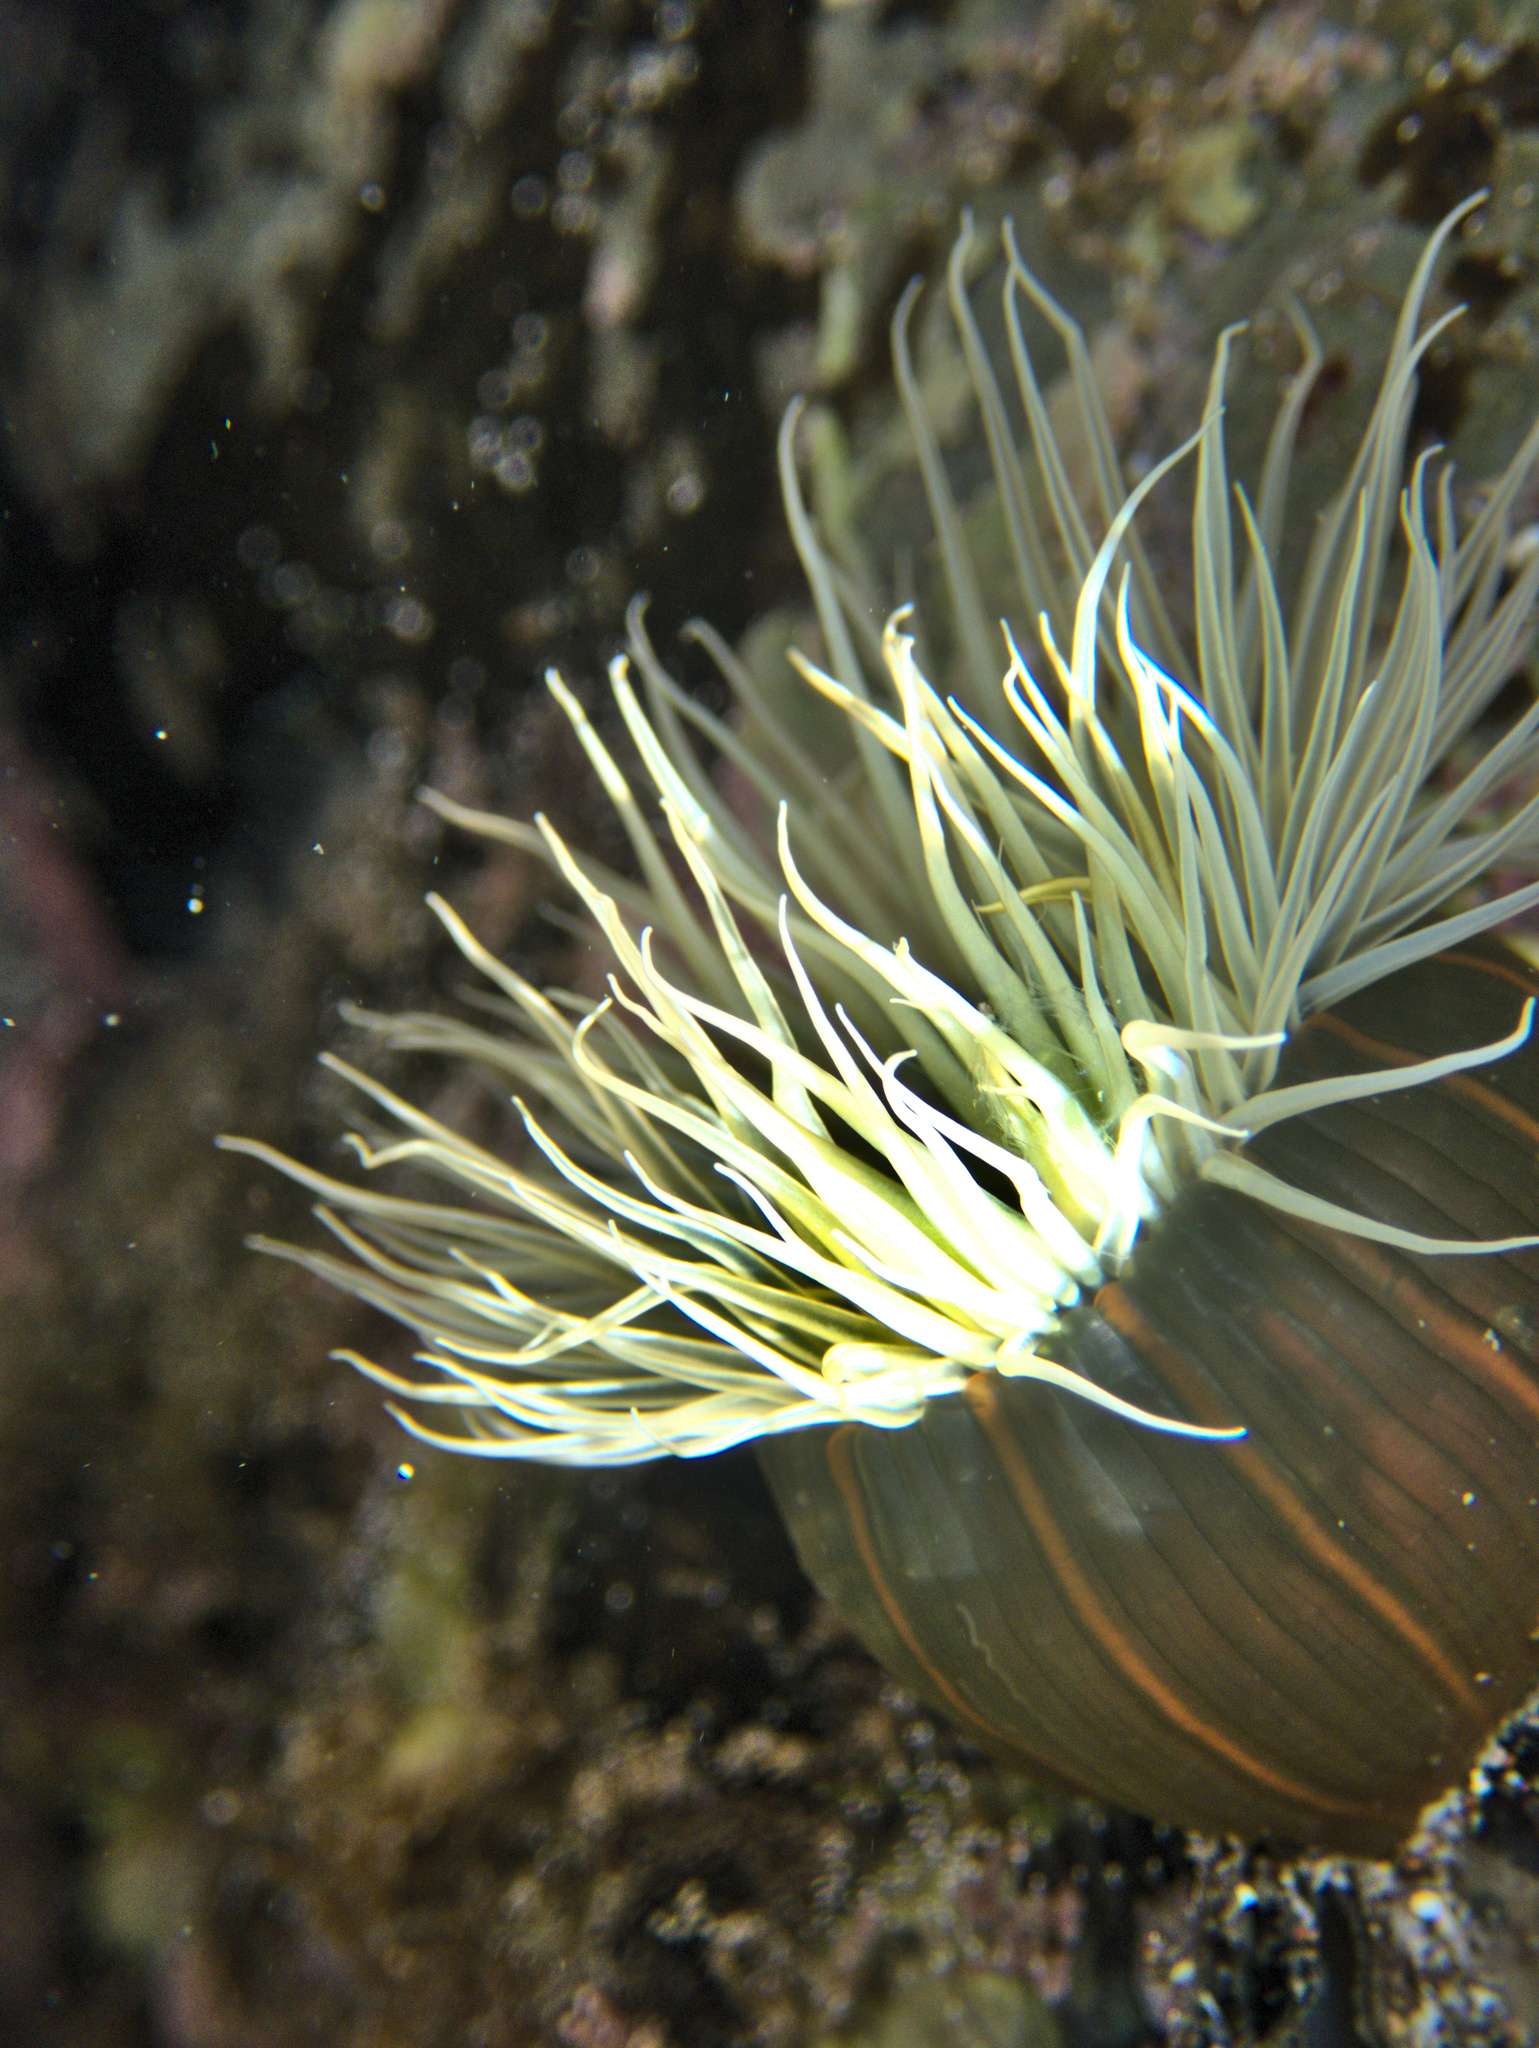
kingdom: Animalia
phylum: Cnidaria
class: Anthozoa
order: Actiniaria
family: Diadumenidae
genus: Diadumene
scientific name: Diadumene lineata
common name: Orange-striped anemone
